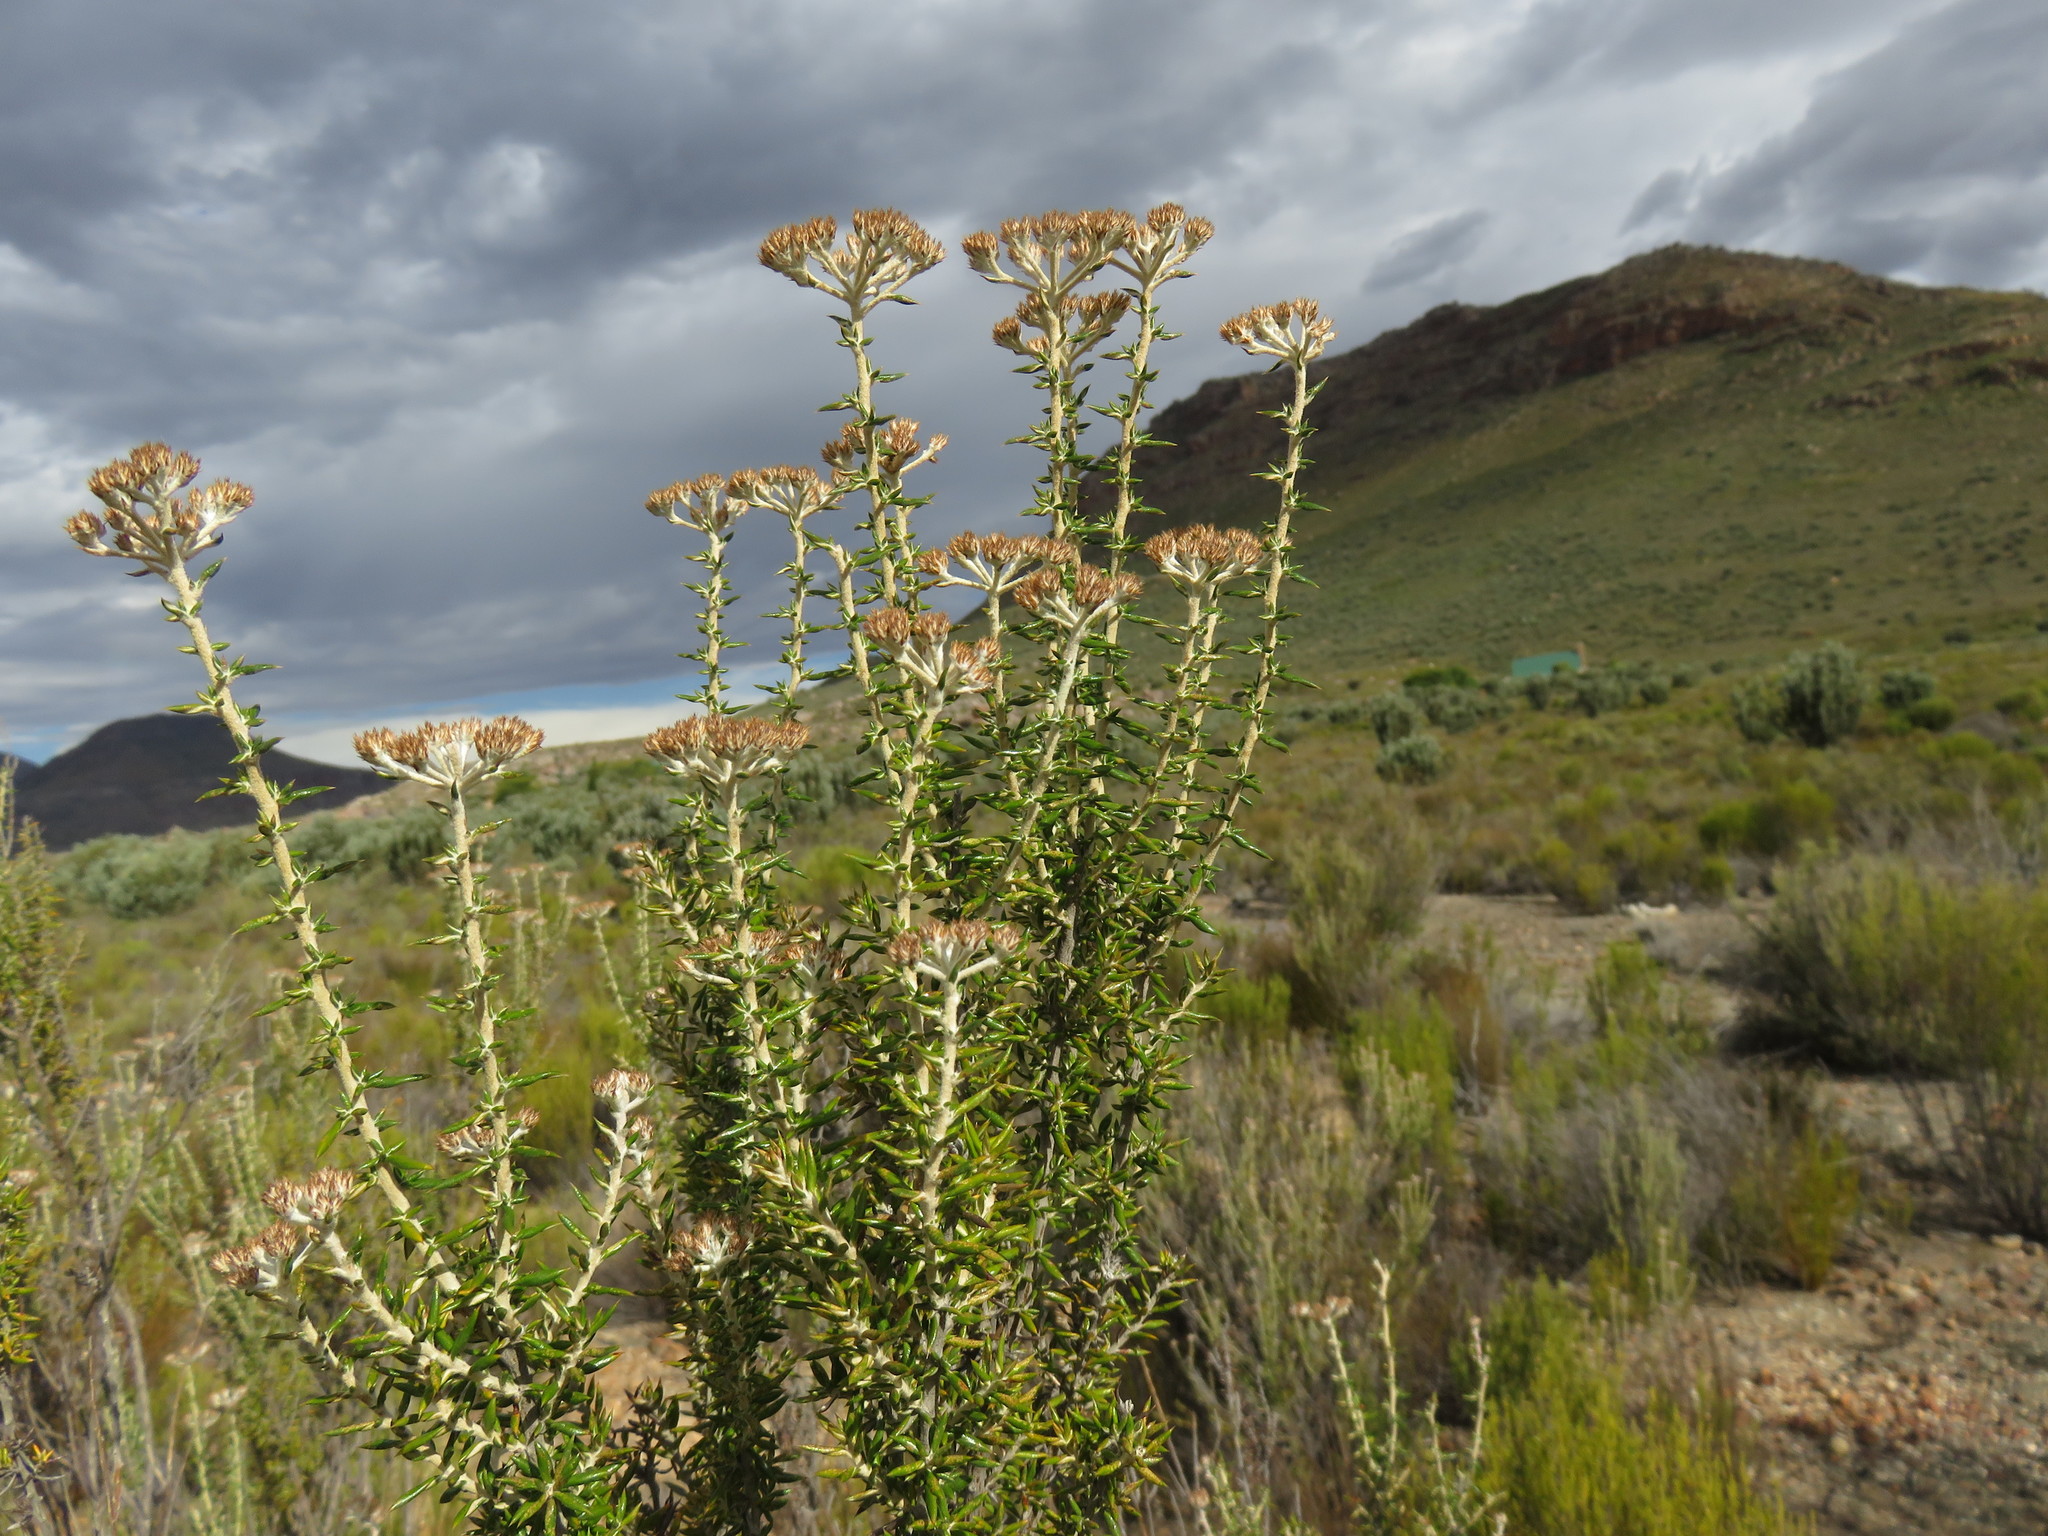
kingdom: Plantae
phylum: Tracheophyta
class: Magnoliopsida
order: Asterales
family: Asteraceae
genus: Metalasia
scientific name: Metalasia dregeana
